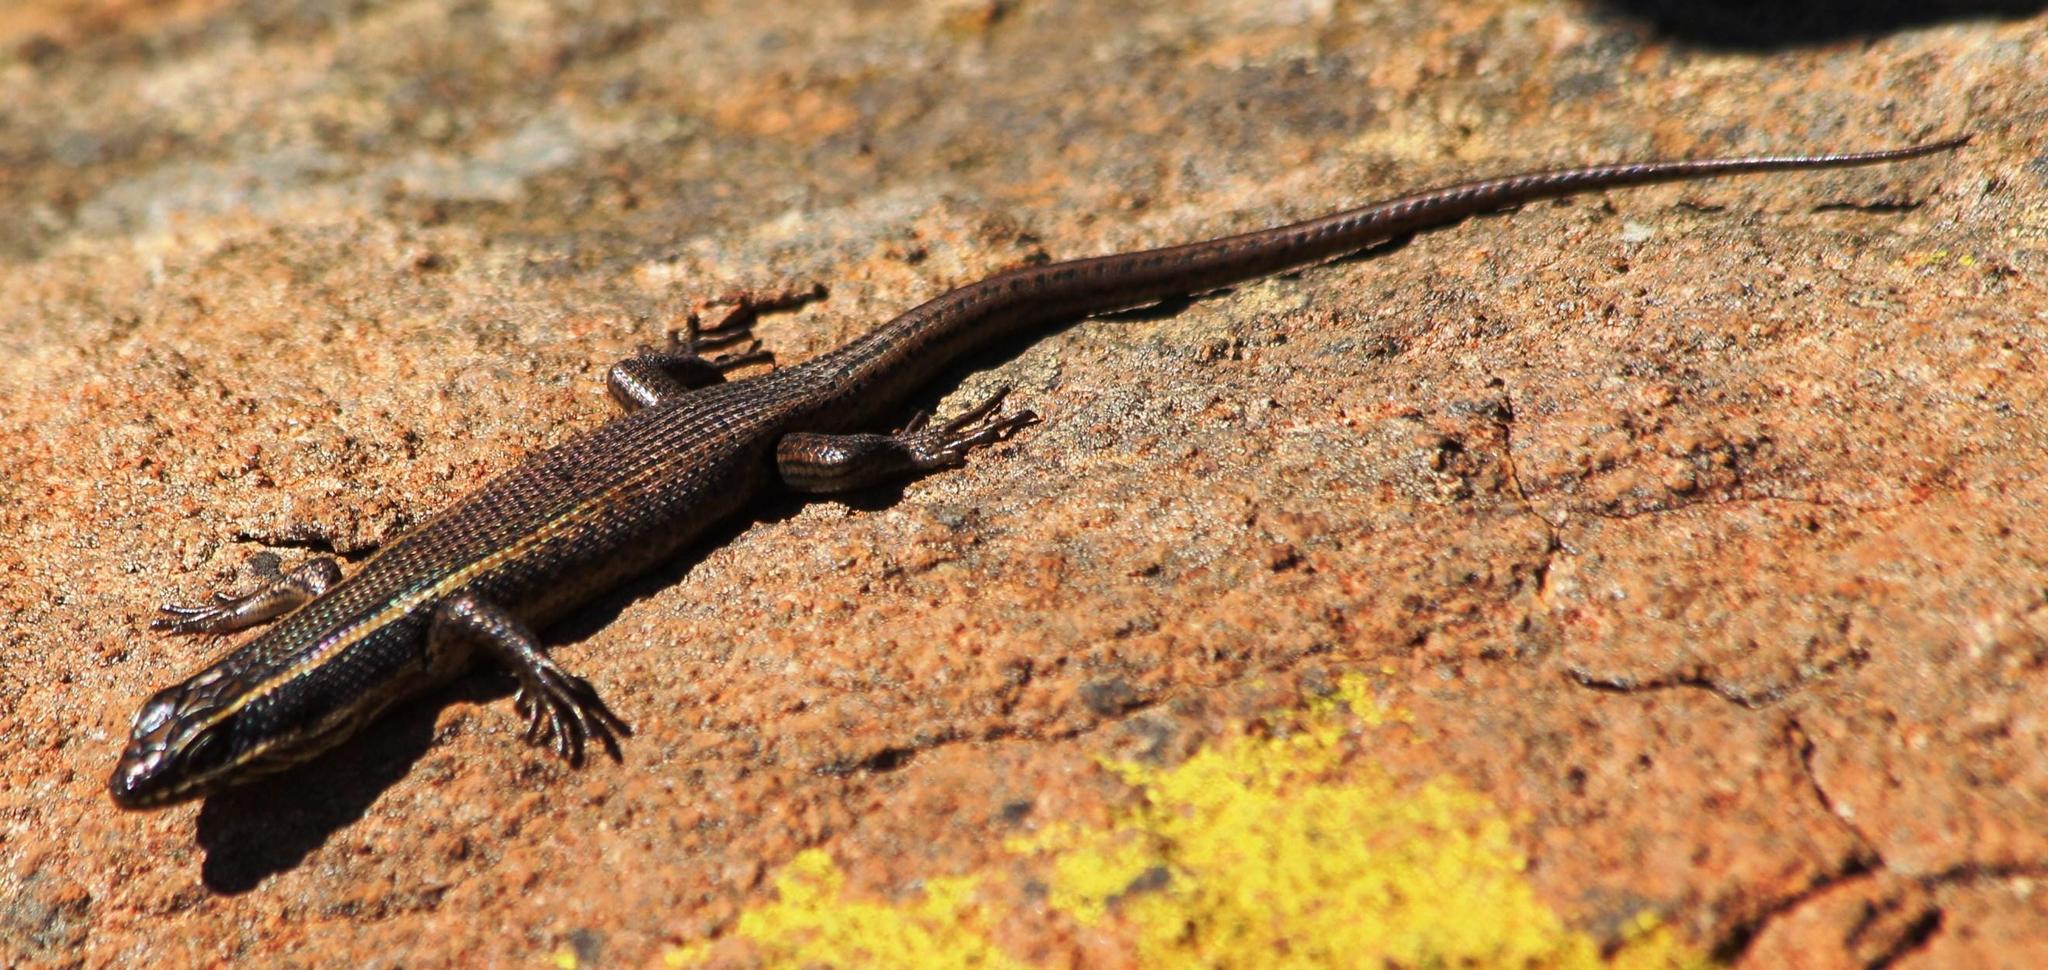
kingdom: Animalia
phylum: Chordata
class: Squamata
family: Scincidae
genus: Trachylepis
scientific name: Trachylepis punctatissima
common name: Montane speckled skink
